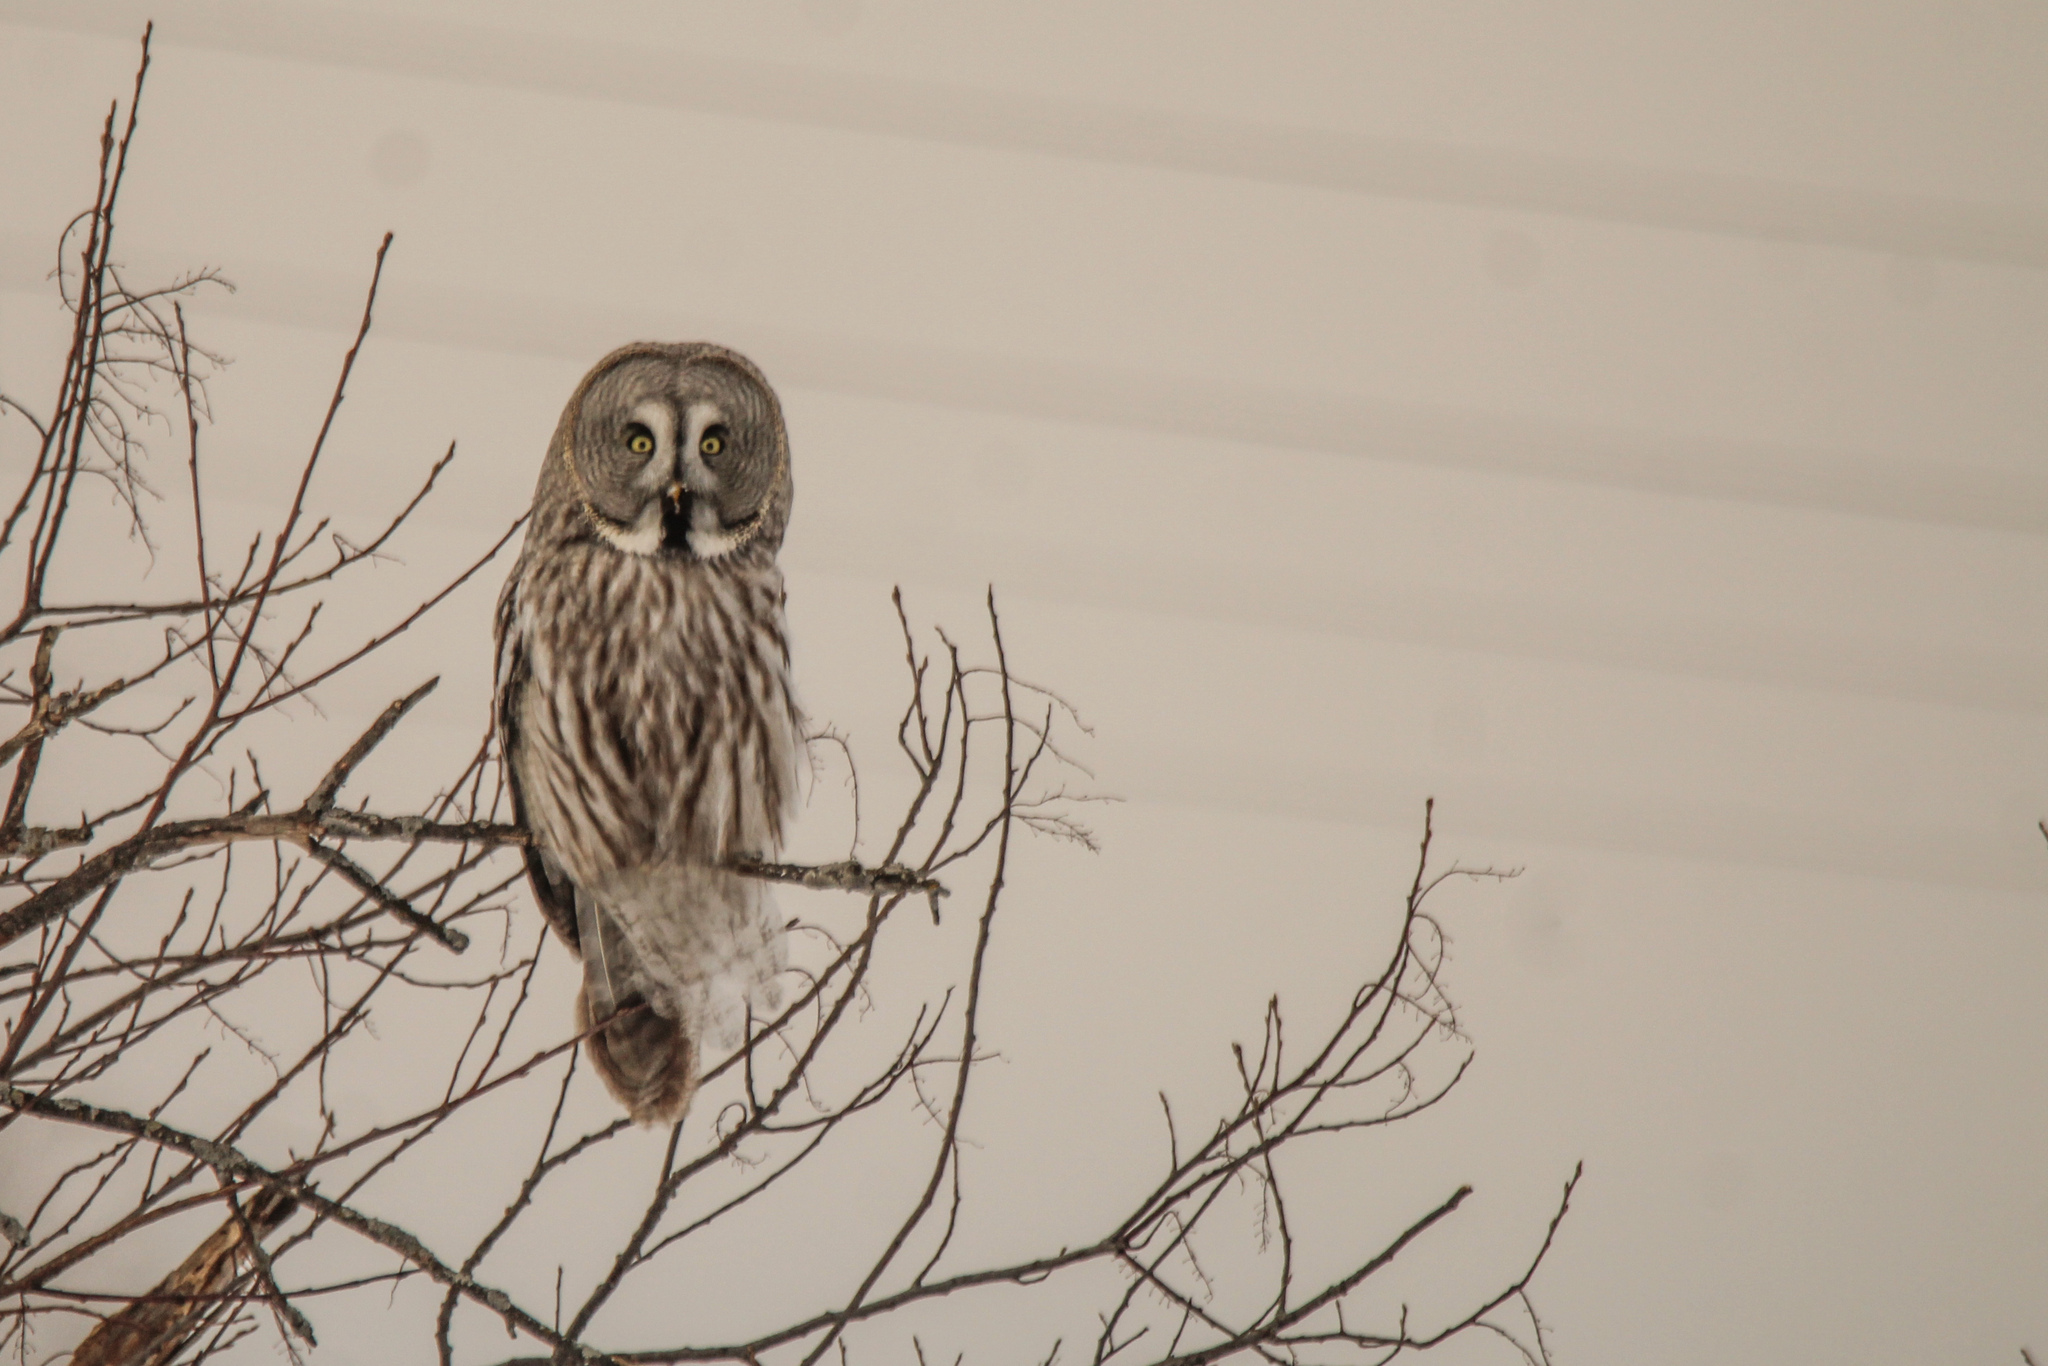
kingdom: Animalia
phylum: Chordata
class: Aves
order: Strigiformes
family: Strigidae
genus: Strix
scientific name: Strix nebulosa
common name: Great grey owl
